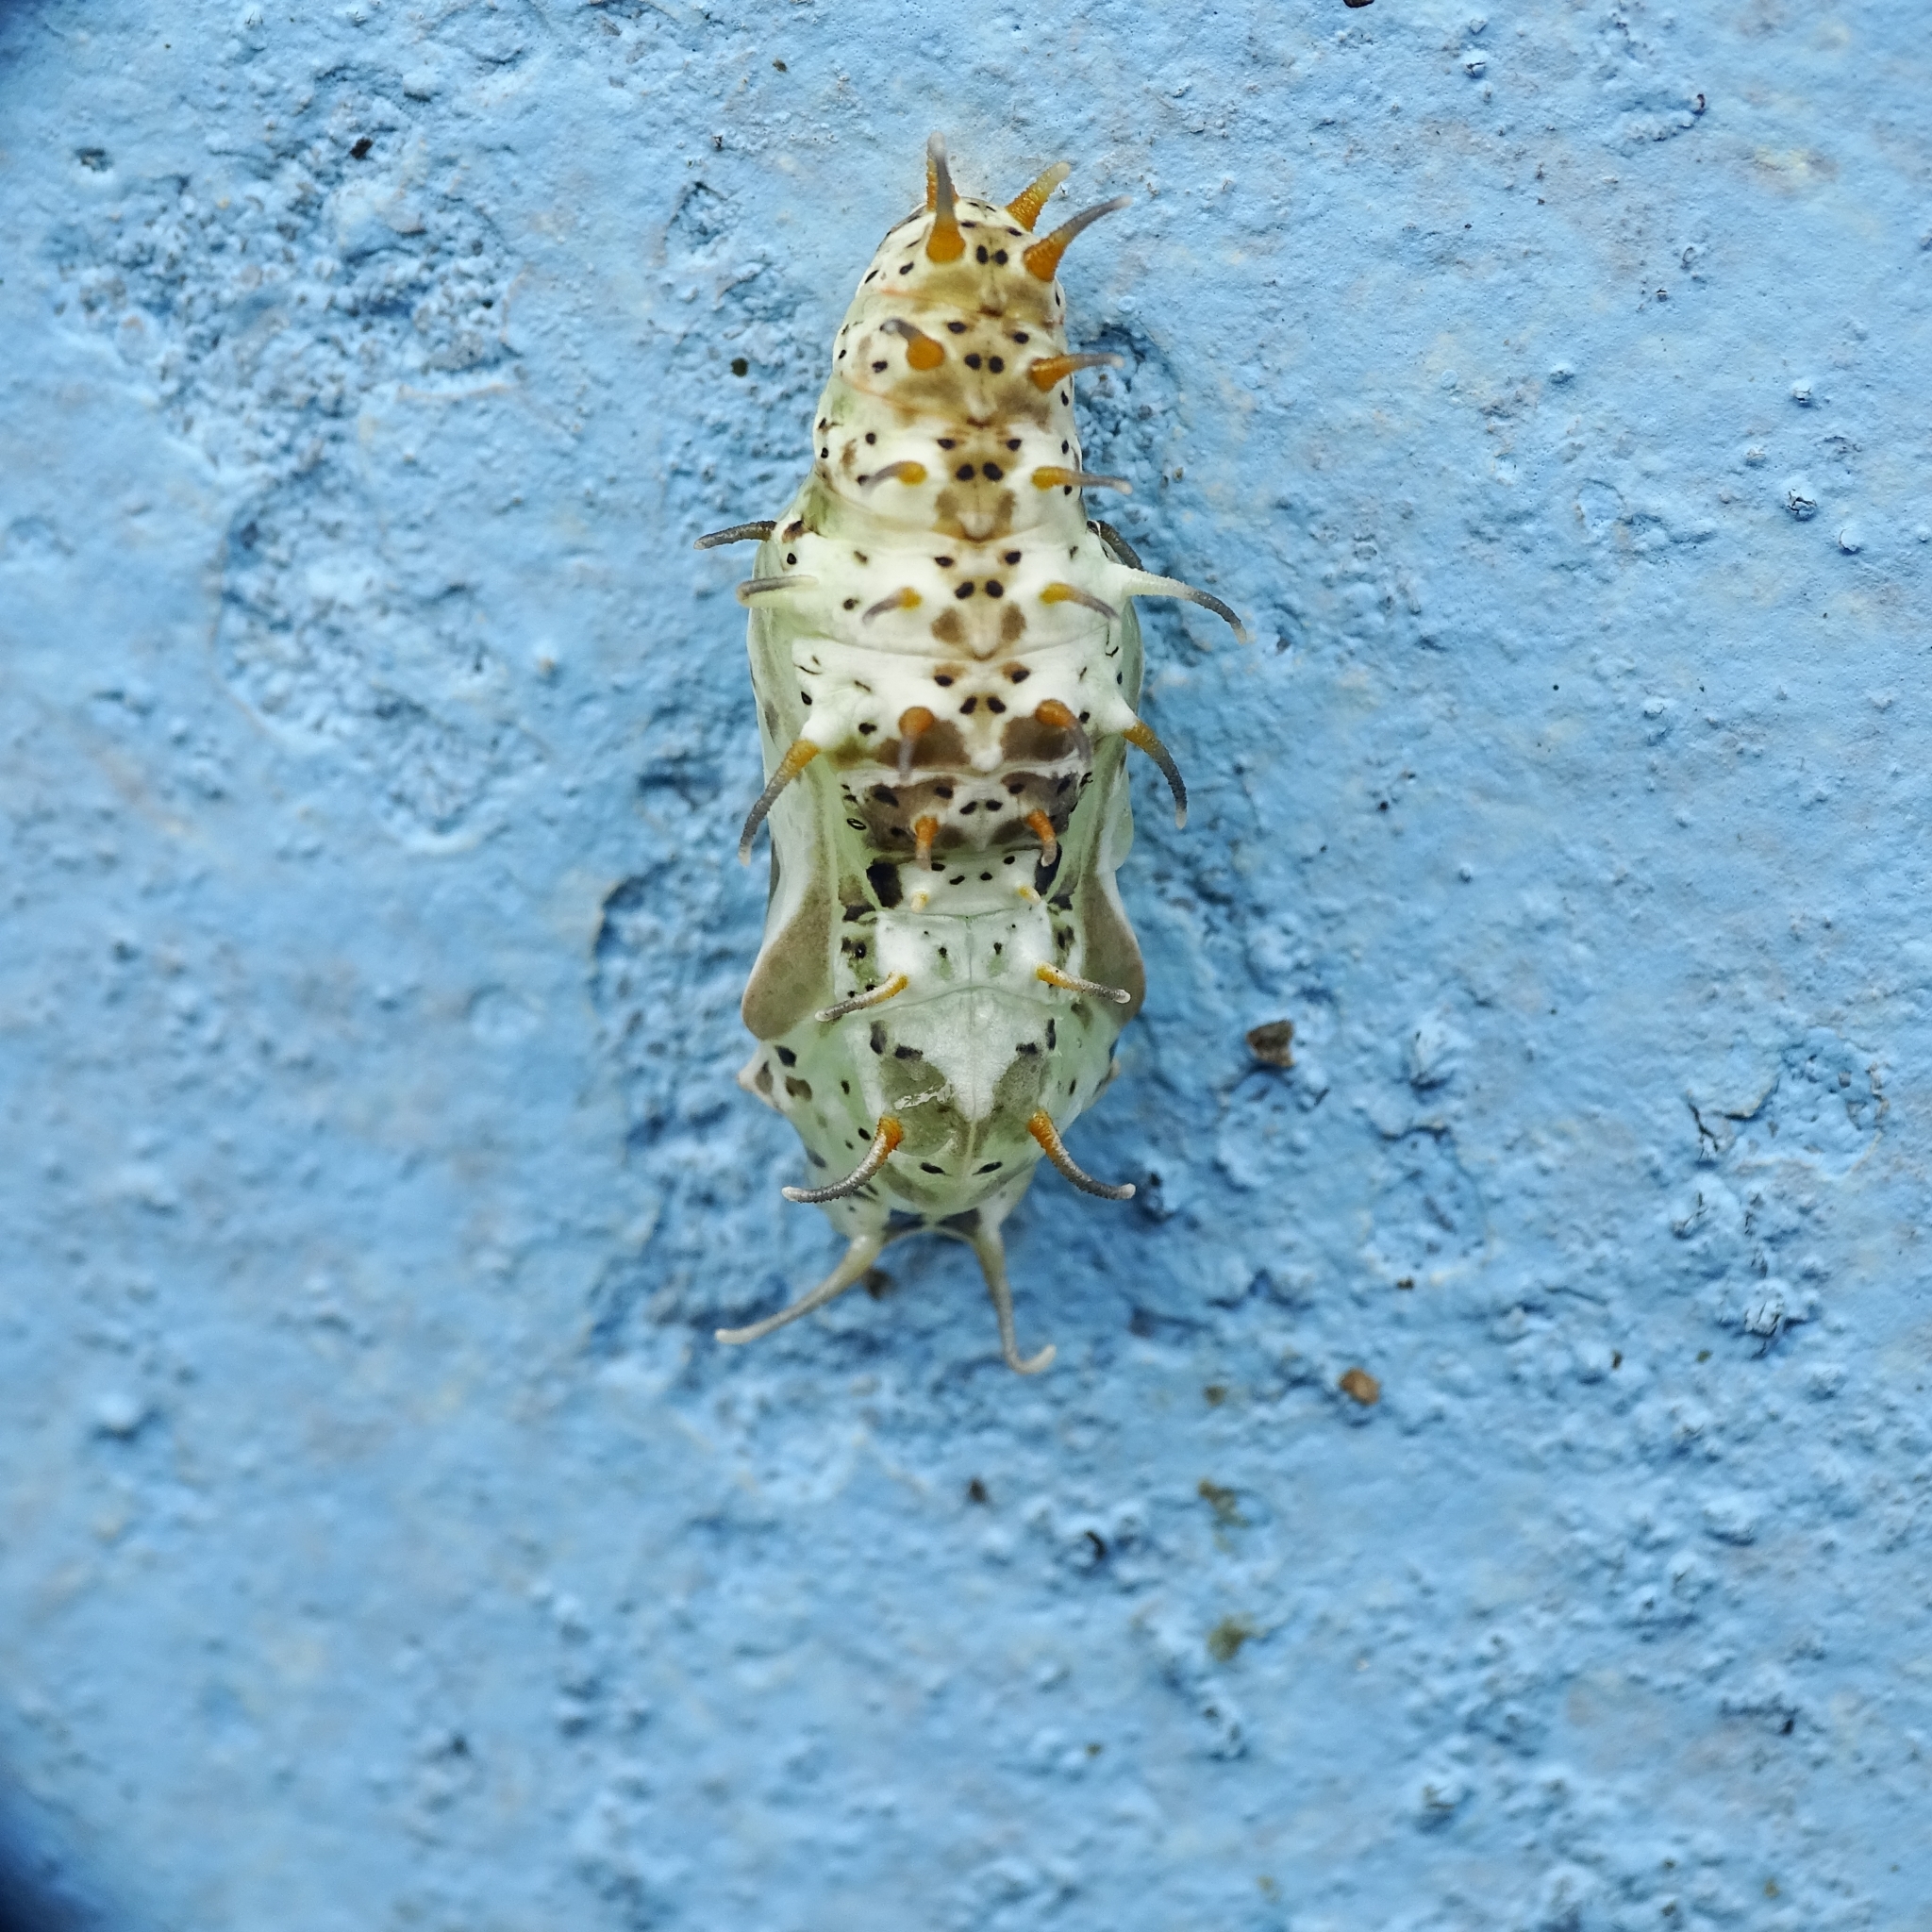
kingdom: Animalia
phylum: Arthropoda
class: Insecta
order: Lepidoptera
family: Nymphalidae
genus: Cirrochroa
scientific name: Cirrochroa thais
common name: Tamil yeoman
